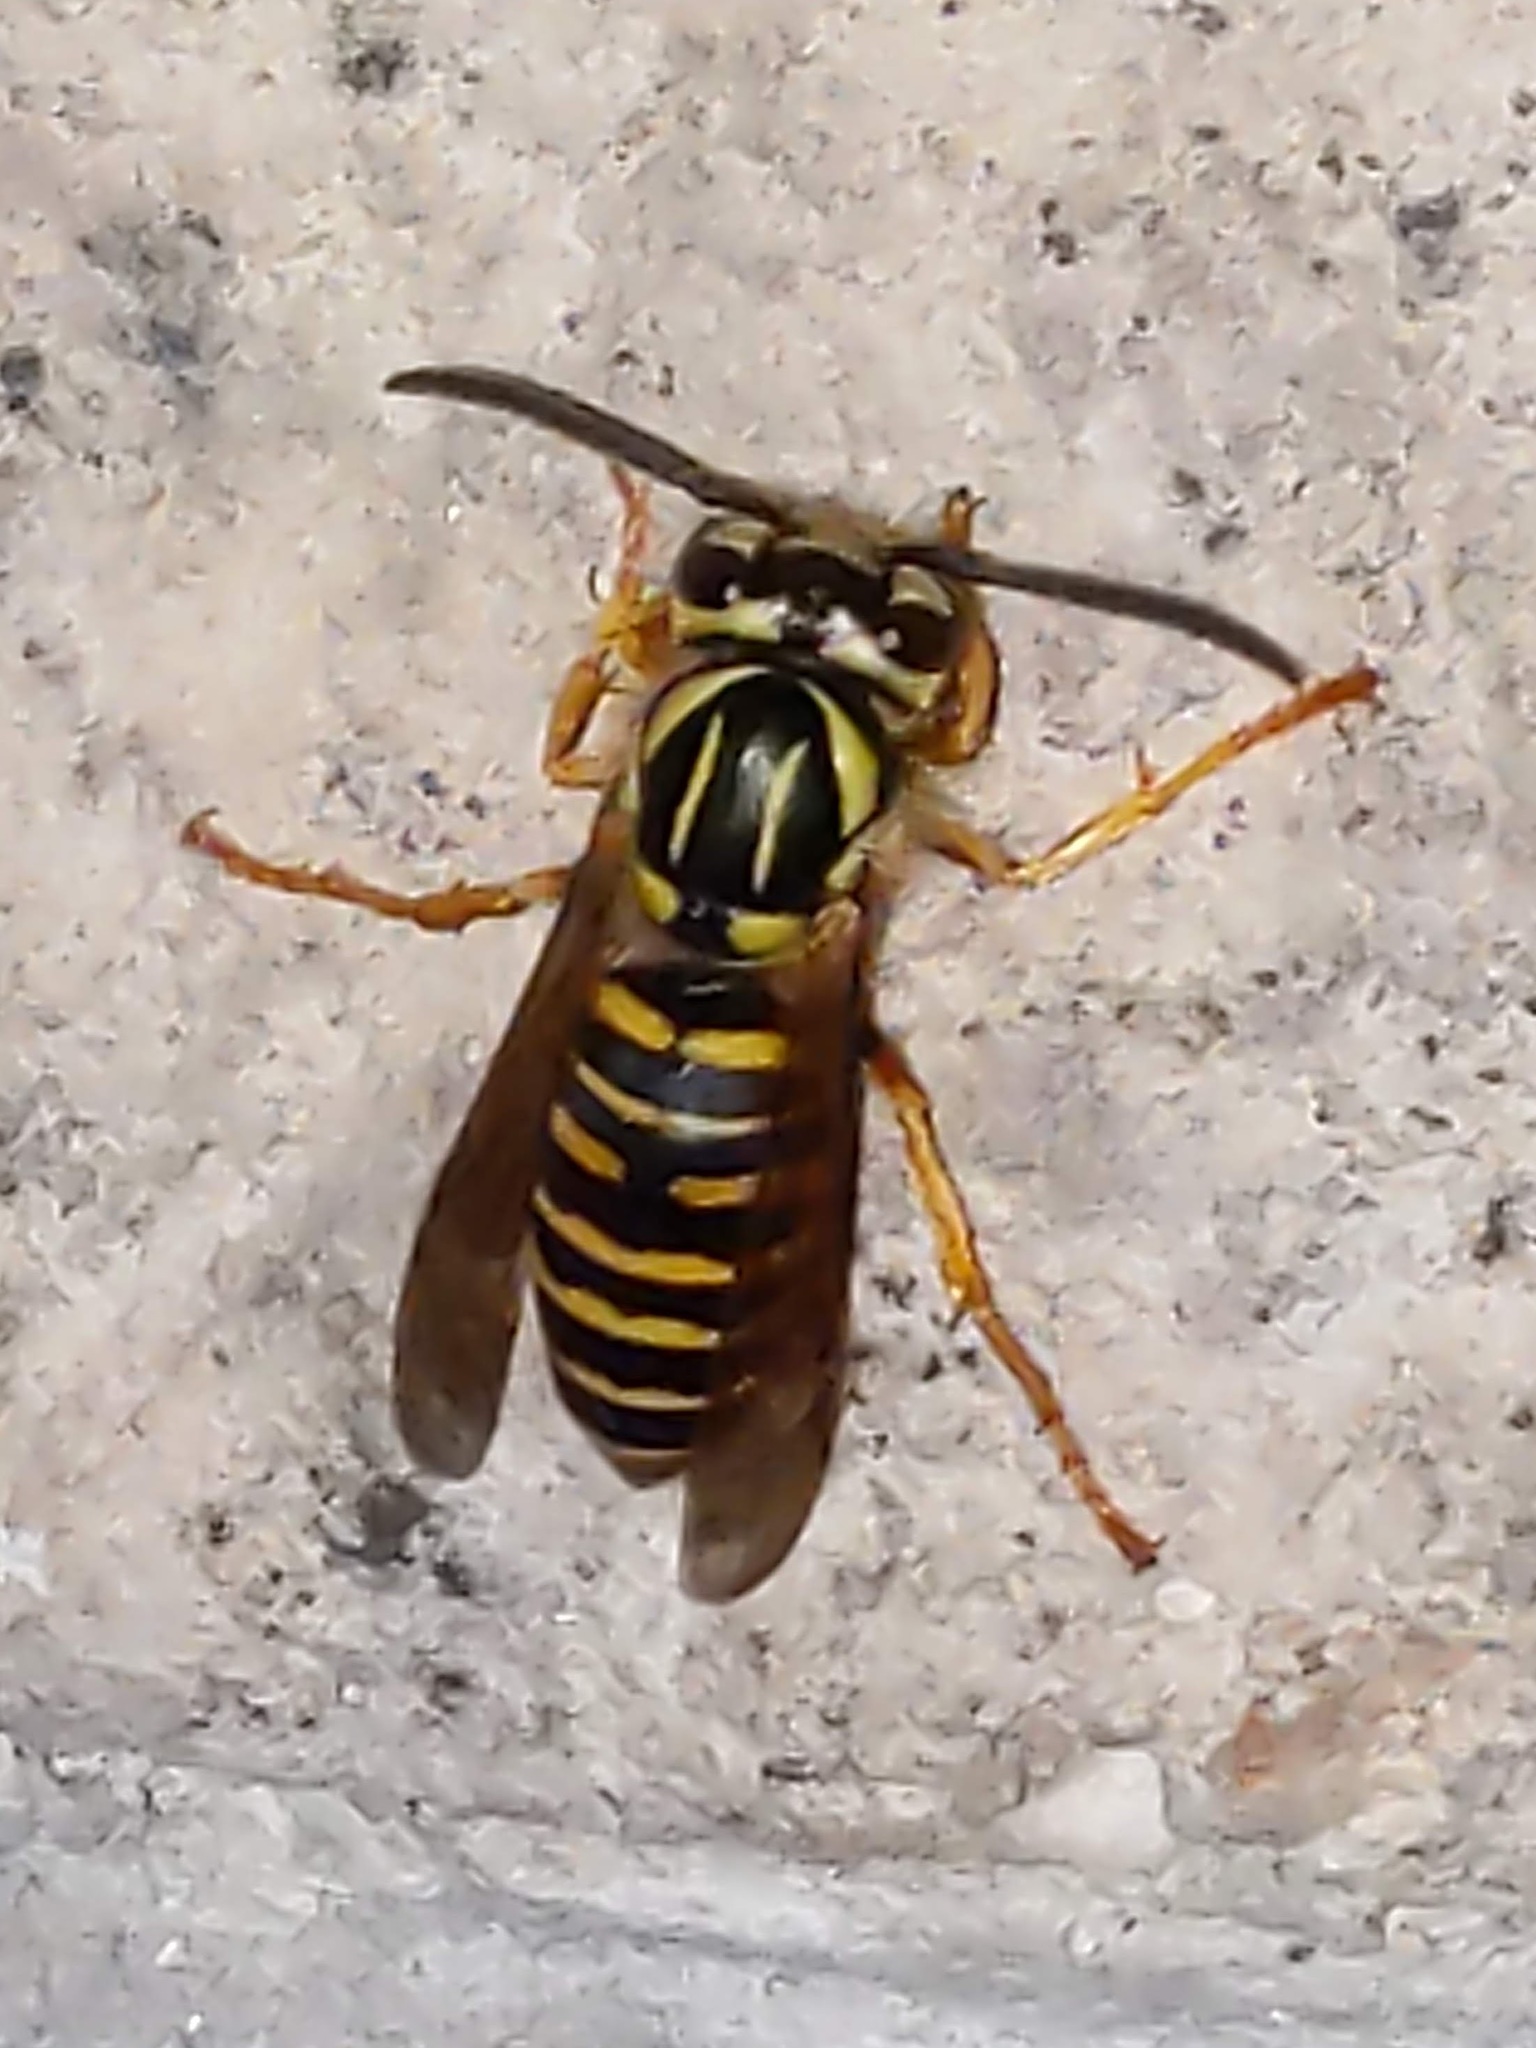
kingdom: Animalia
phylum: Arthropoda
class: Insecta
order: Hymenoptera
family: Vespidae
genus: Vespula
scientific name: Vespula squamosa
